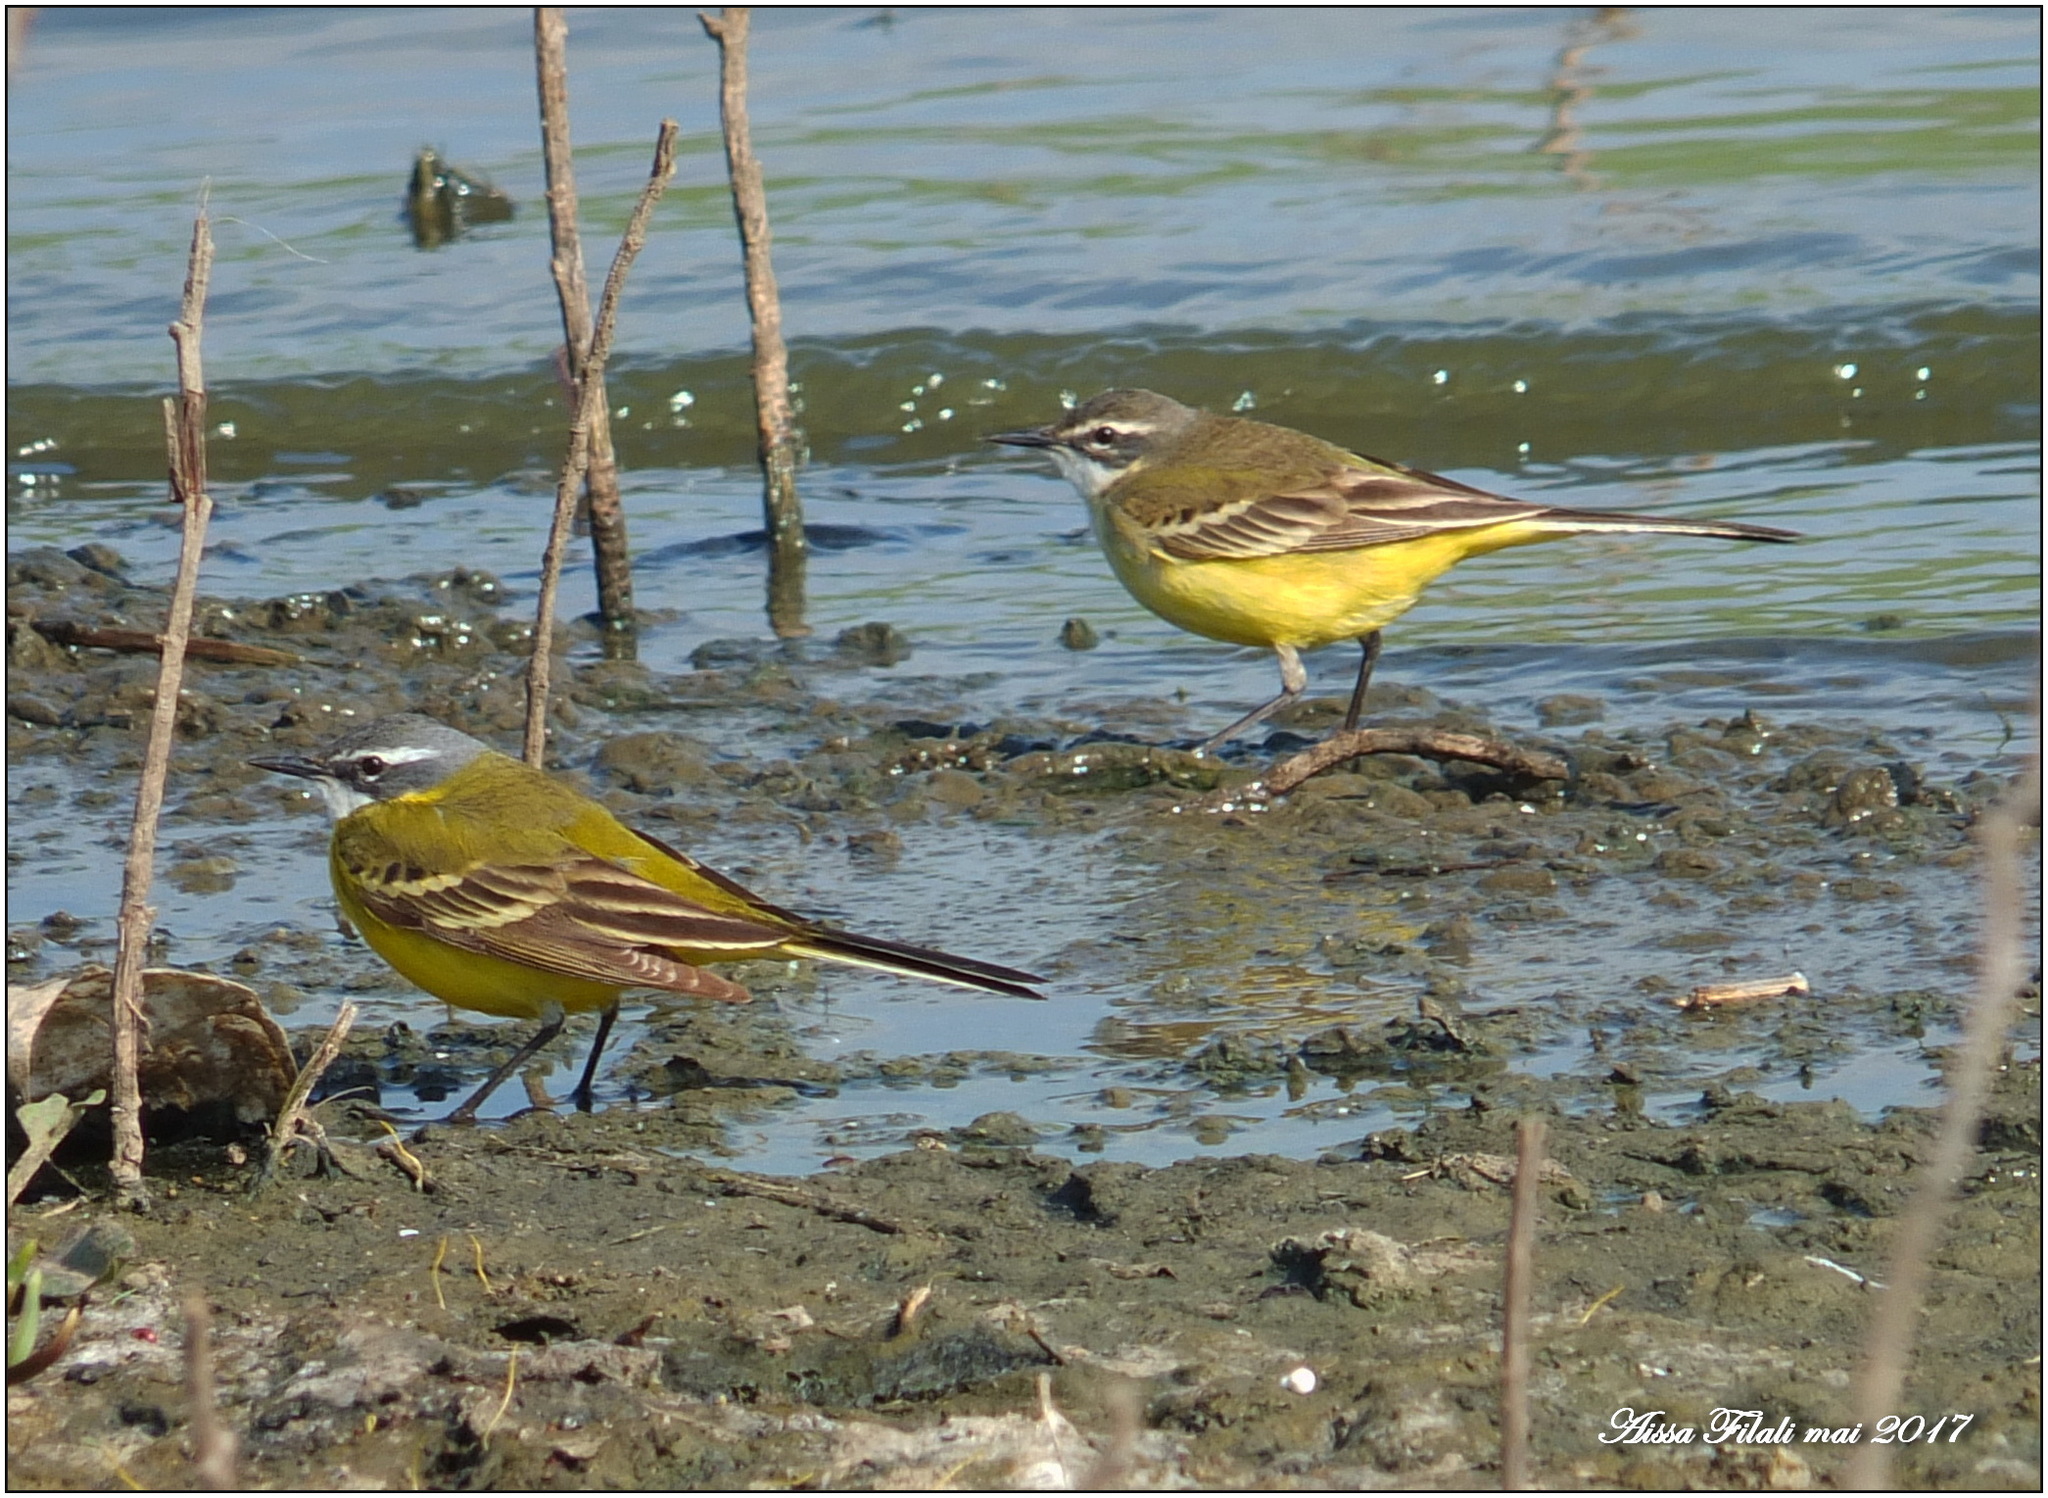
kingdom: Animalia
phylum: Chordata
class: Aves
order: Passeriformes
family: Motacillidae
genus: Motacilla
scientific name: Motacilla flava
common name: Western yellow wagtail
